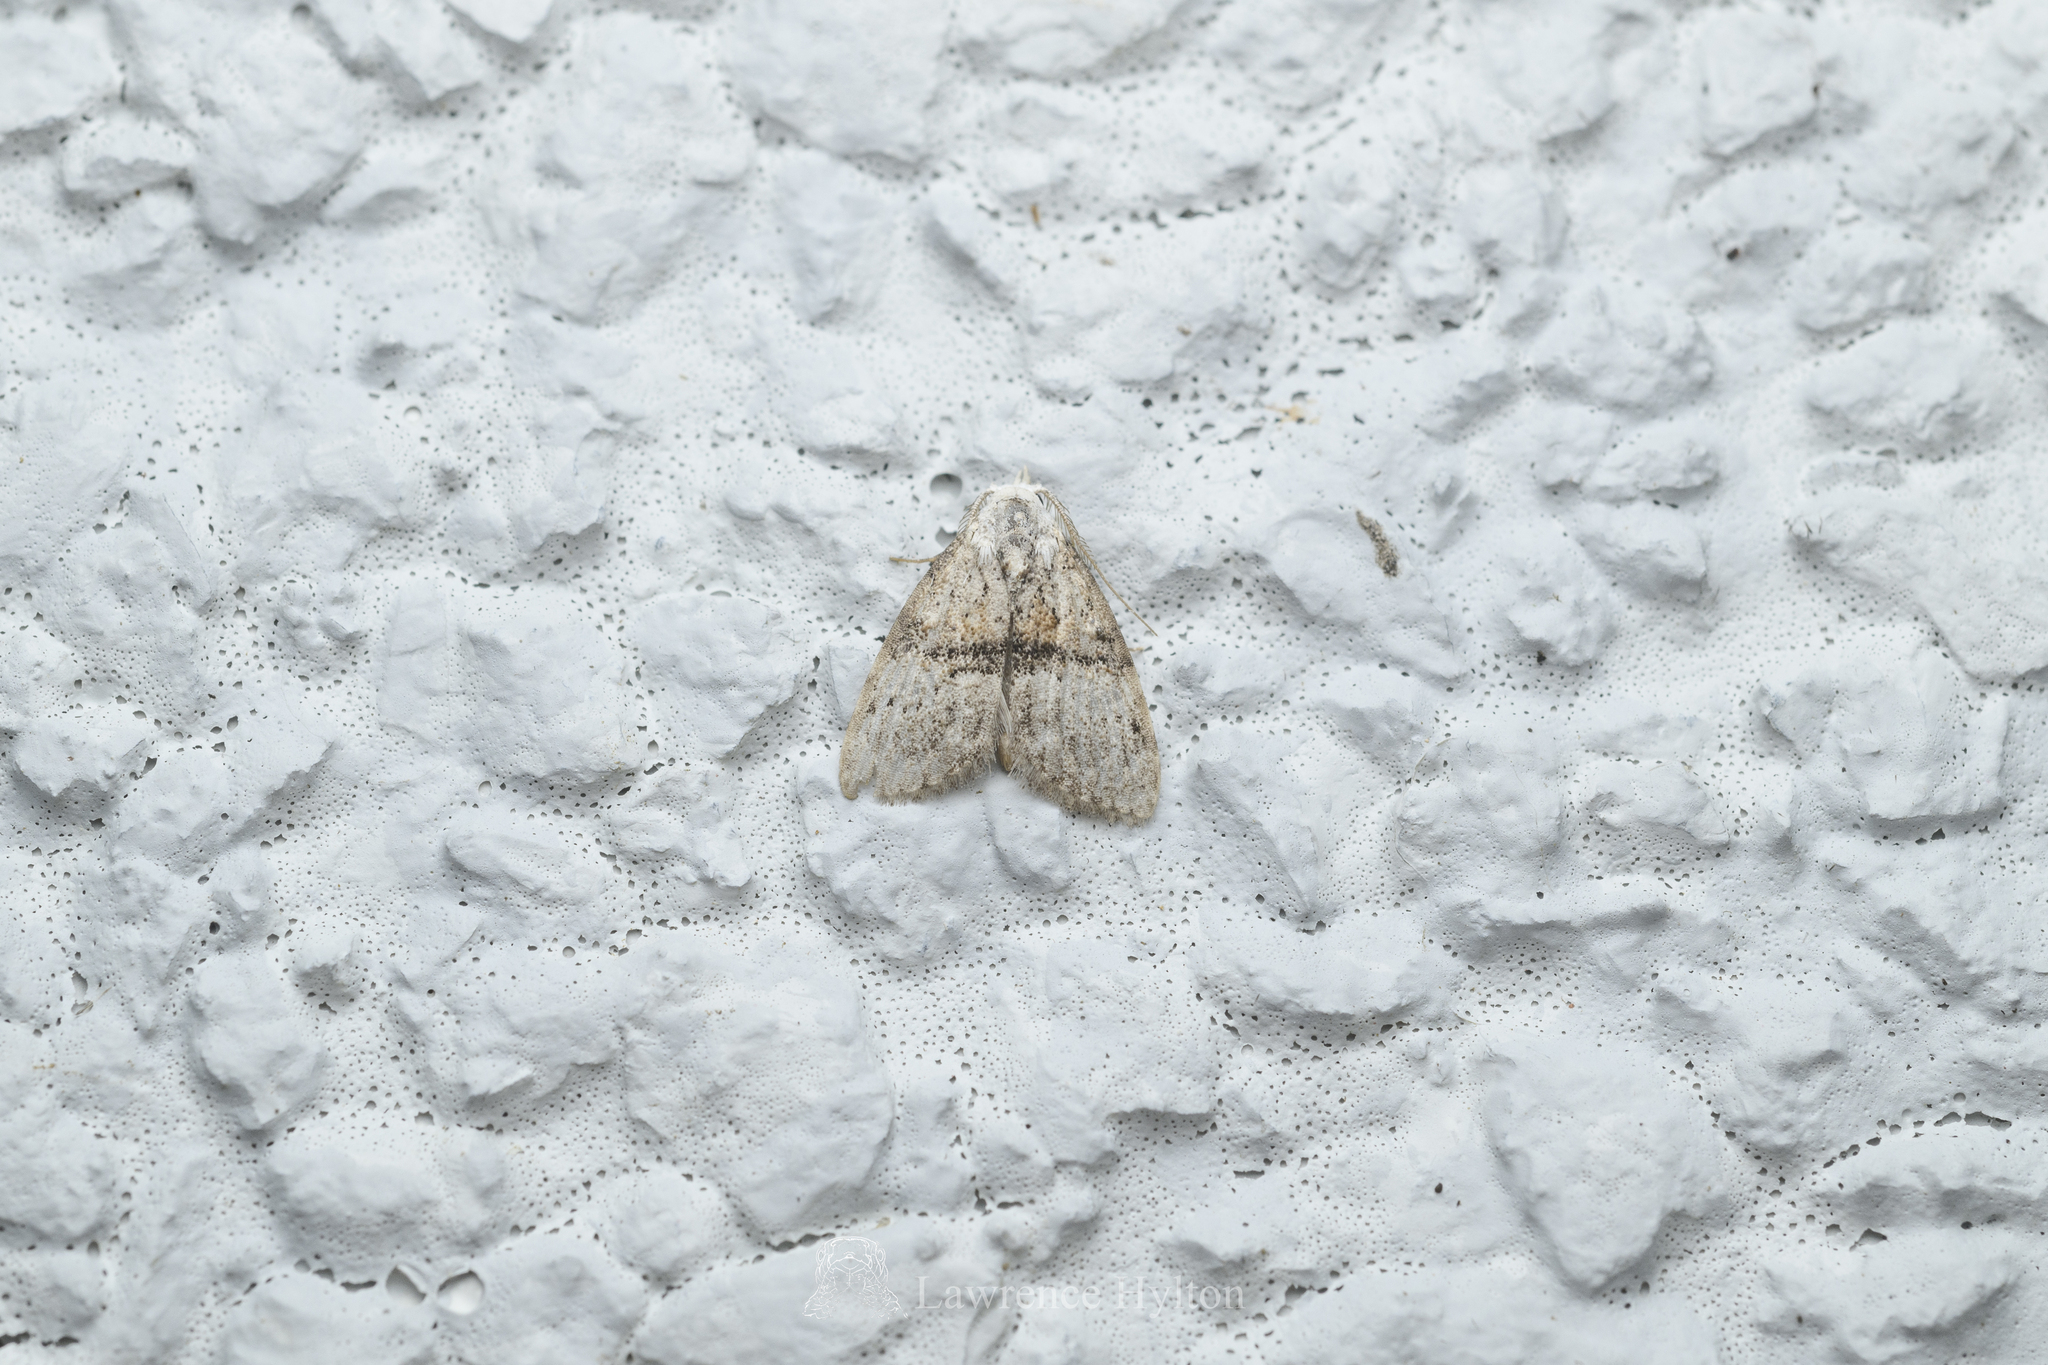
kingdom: Animalia
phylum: Arthropoda
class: Insecta
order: Lepidoptera
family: Nolidae
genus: Manoba
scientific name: Manoba fasciatus
